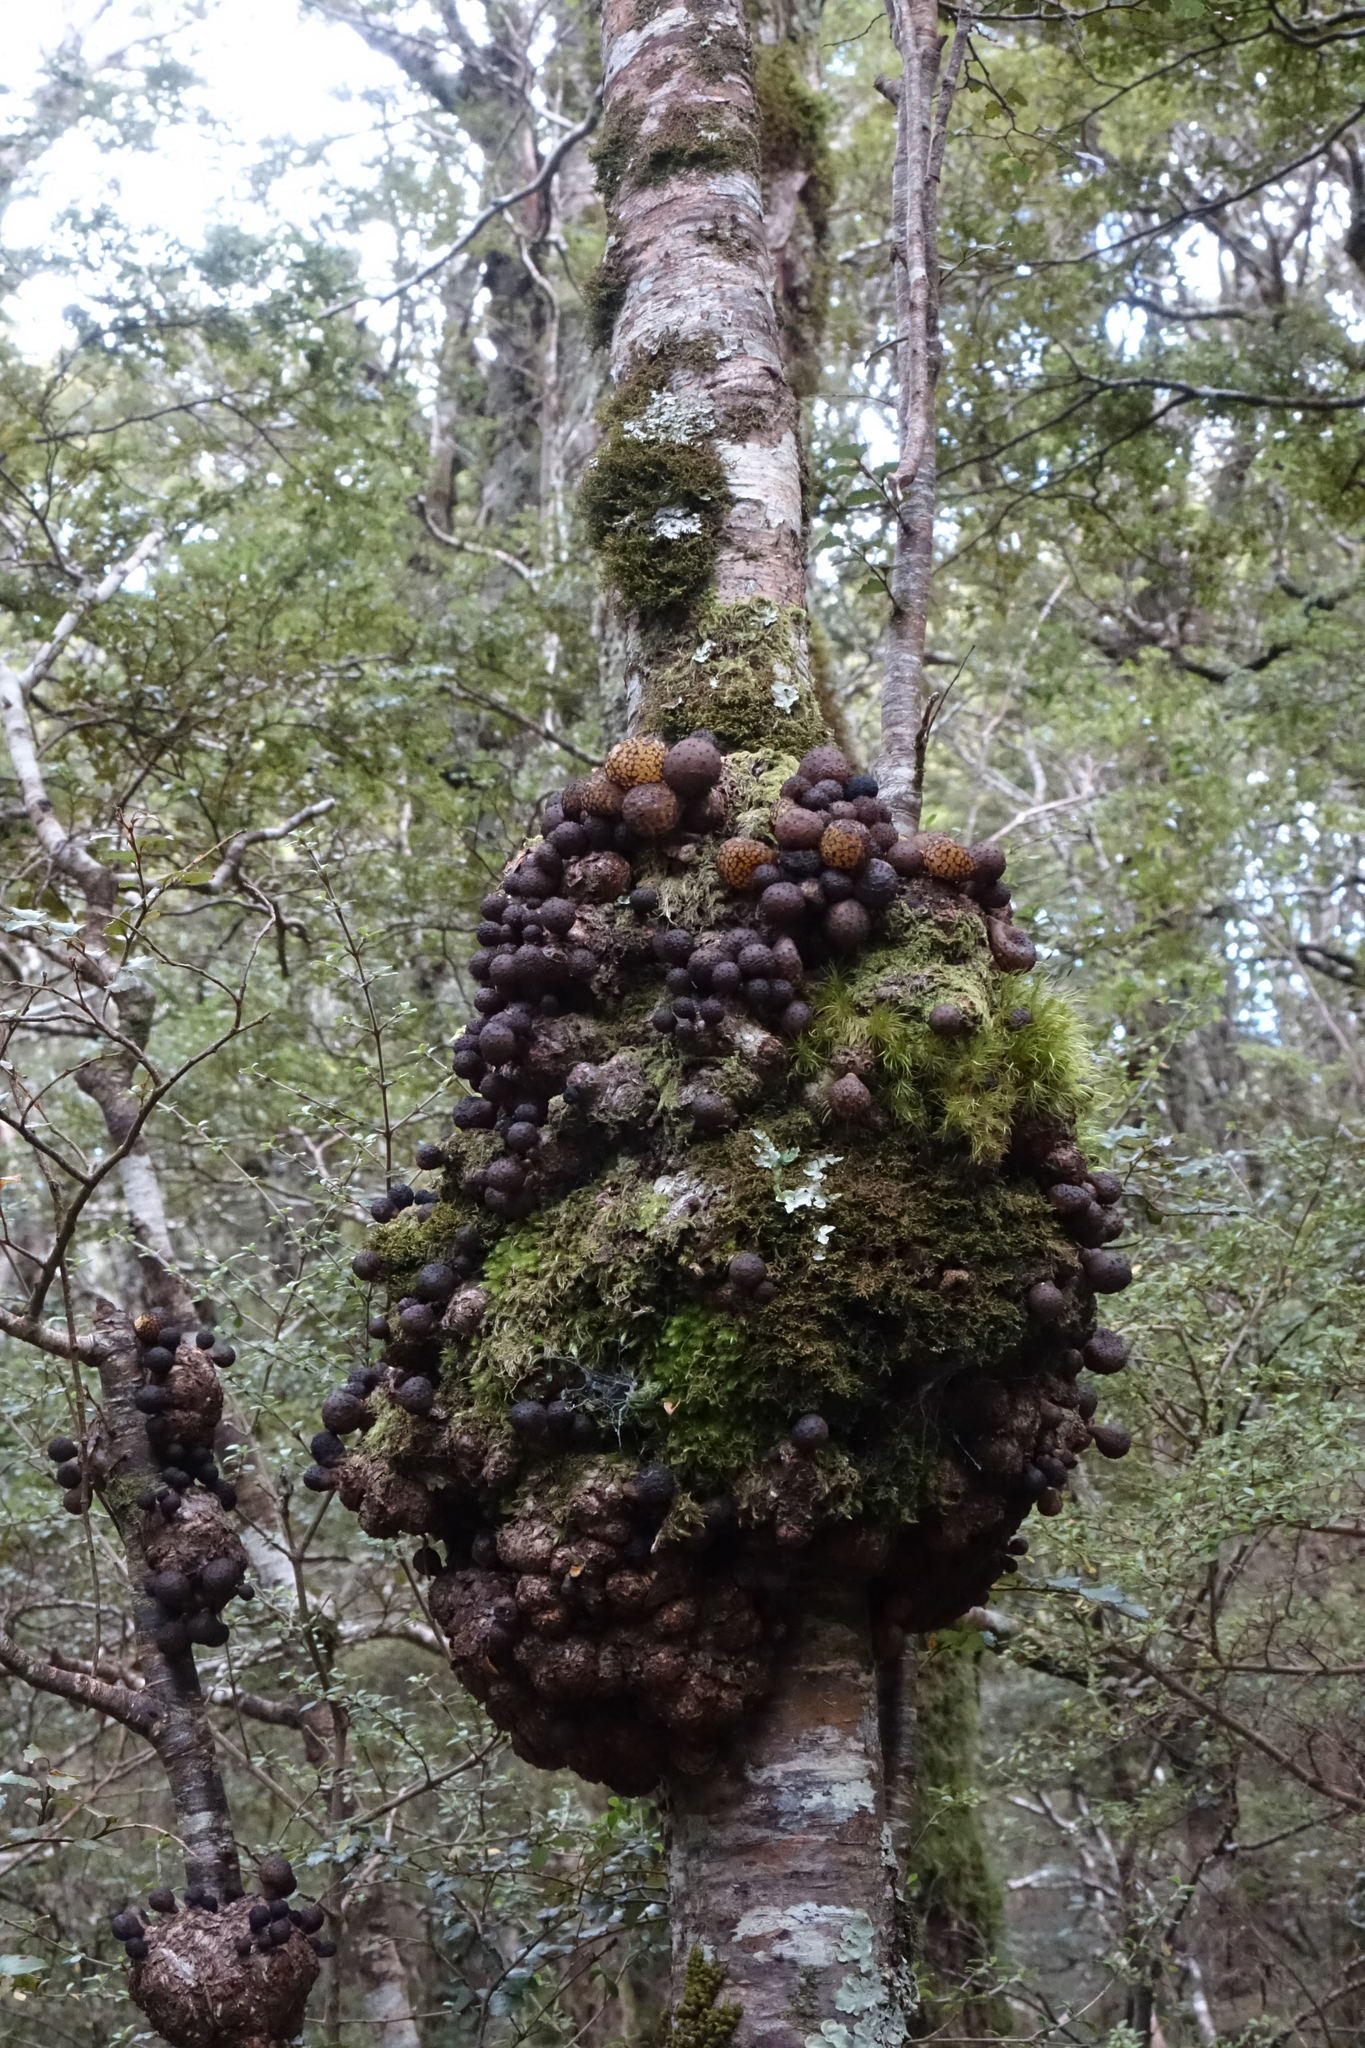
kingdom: Fungi
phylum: Ascomycota
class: Leotiomycetes
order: Cyttariales
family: Cyttariaceae
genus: Cyttaria
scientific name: Cyttaria nigra
